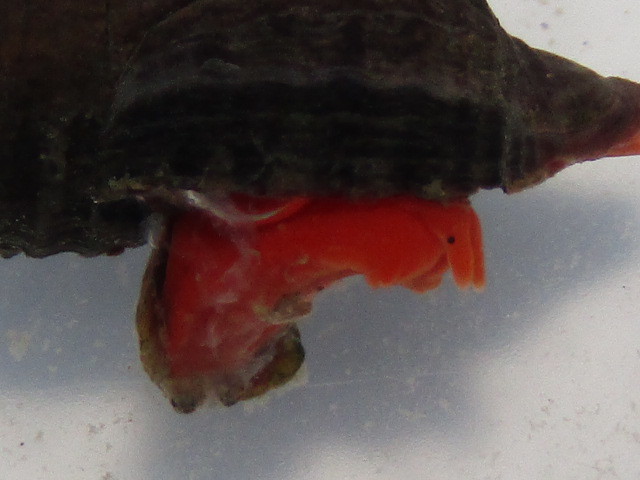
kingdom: Animalia
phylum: Mollusca
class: Gastropoda
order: Neogastropoda
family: Fasciolariidae
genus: Taron
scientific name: Taron dubius
